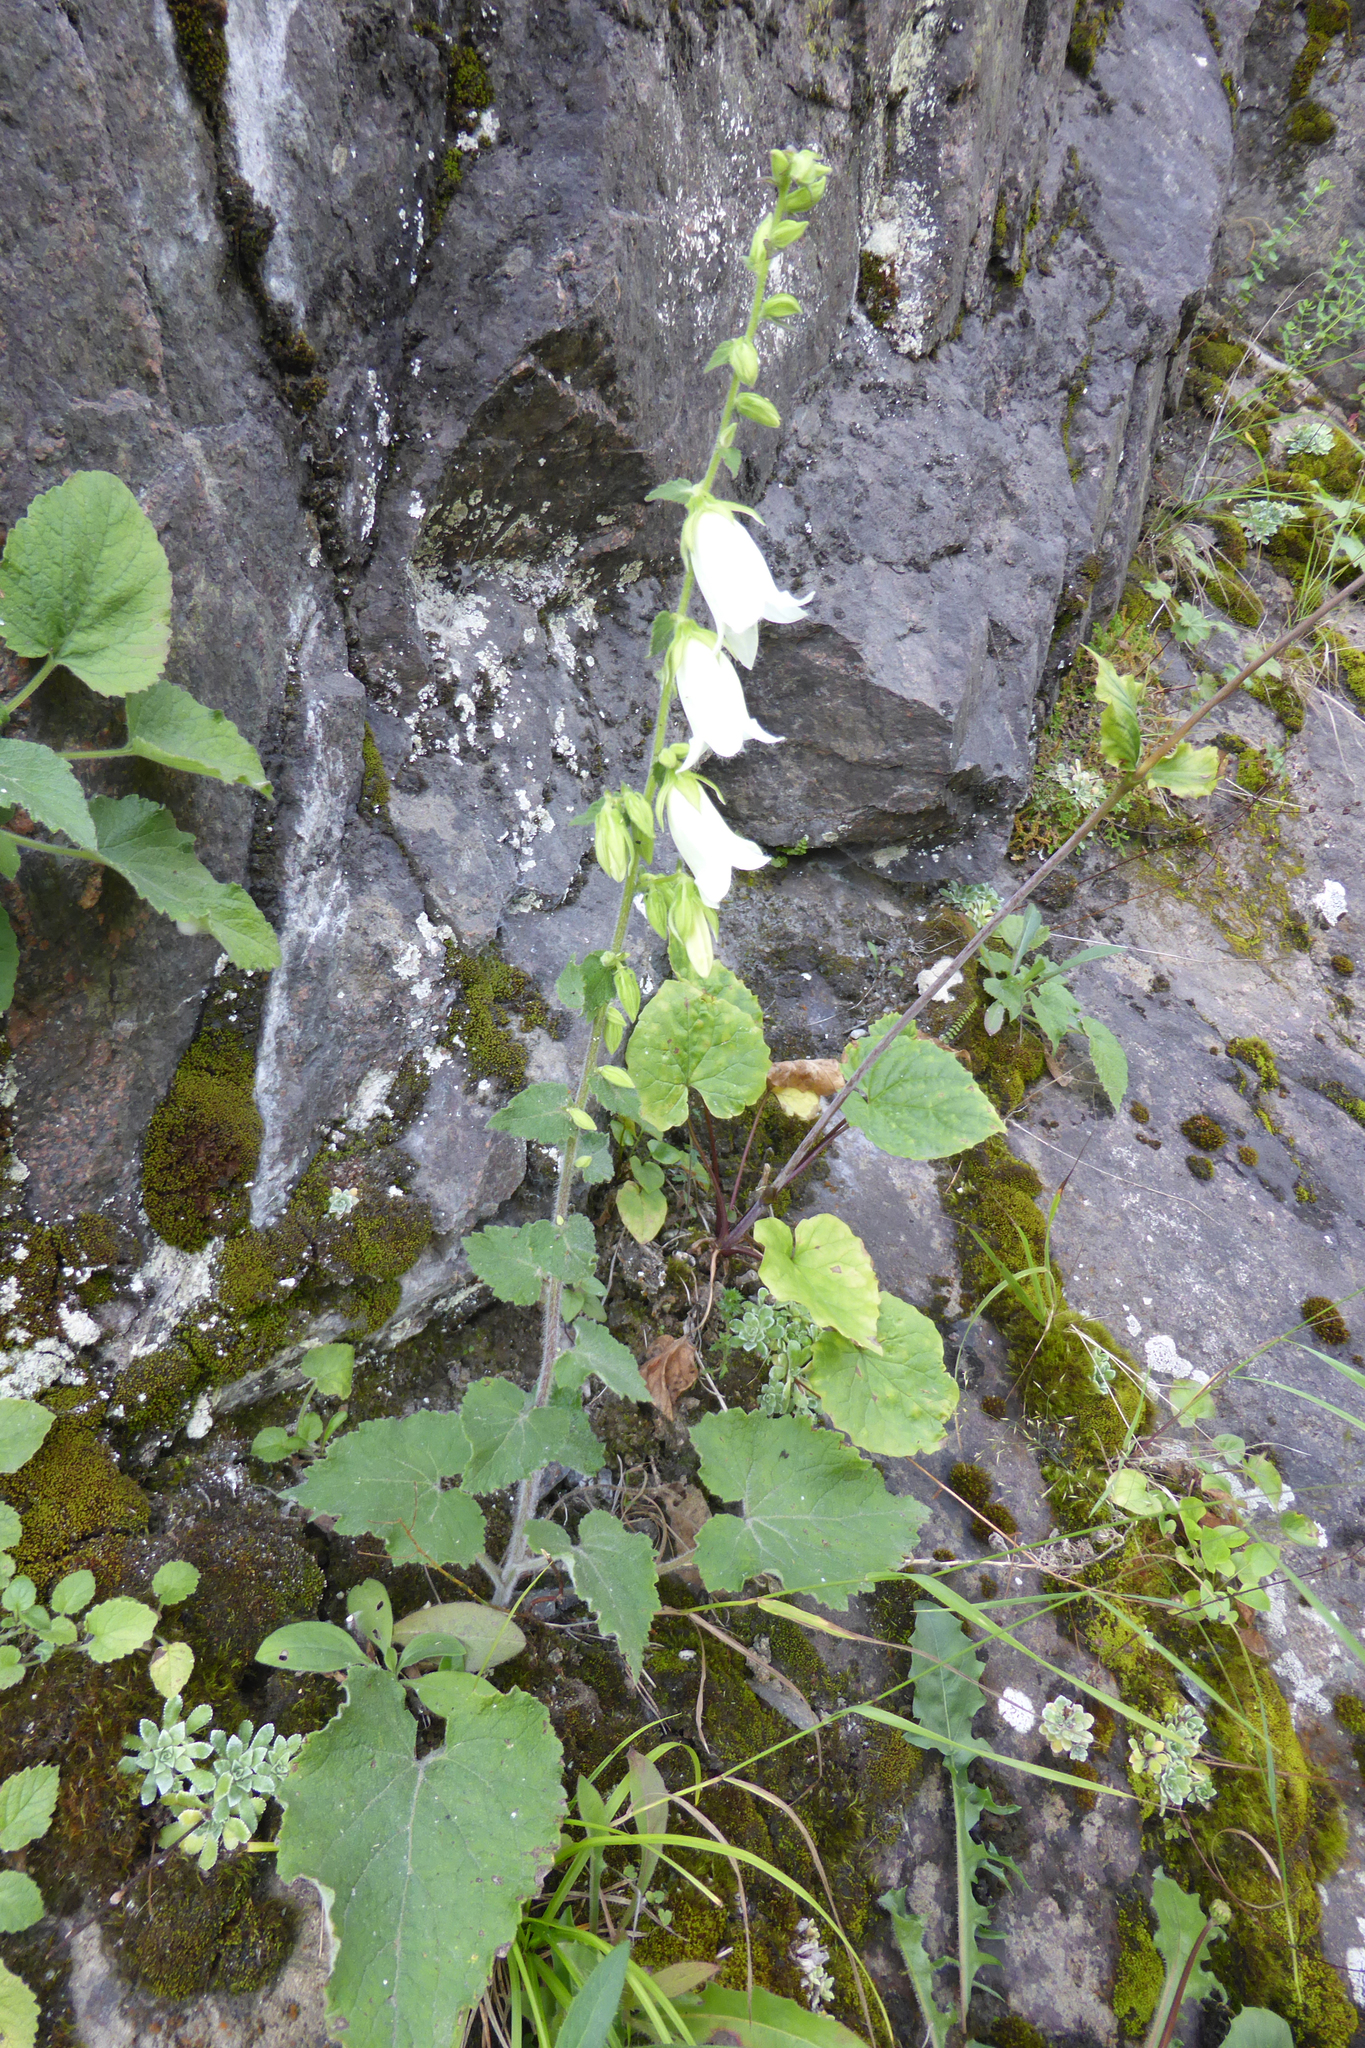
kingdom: Plantae
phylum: Tracheophyta
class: Magnoliopsida
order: Asterales
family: Campanulaceae
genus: Campanula
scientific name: Campanula alliariifolia
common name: Cornish bellflower
